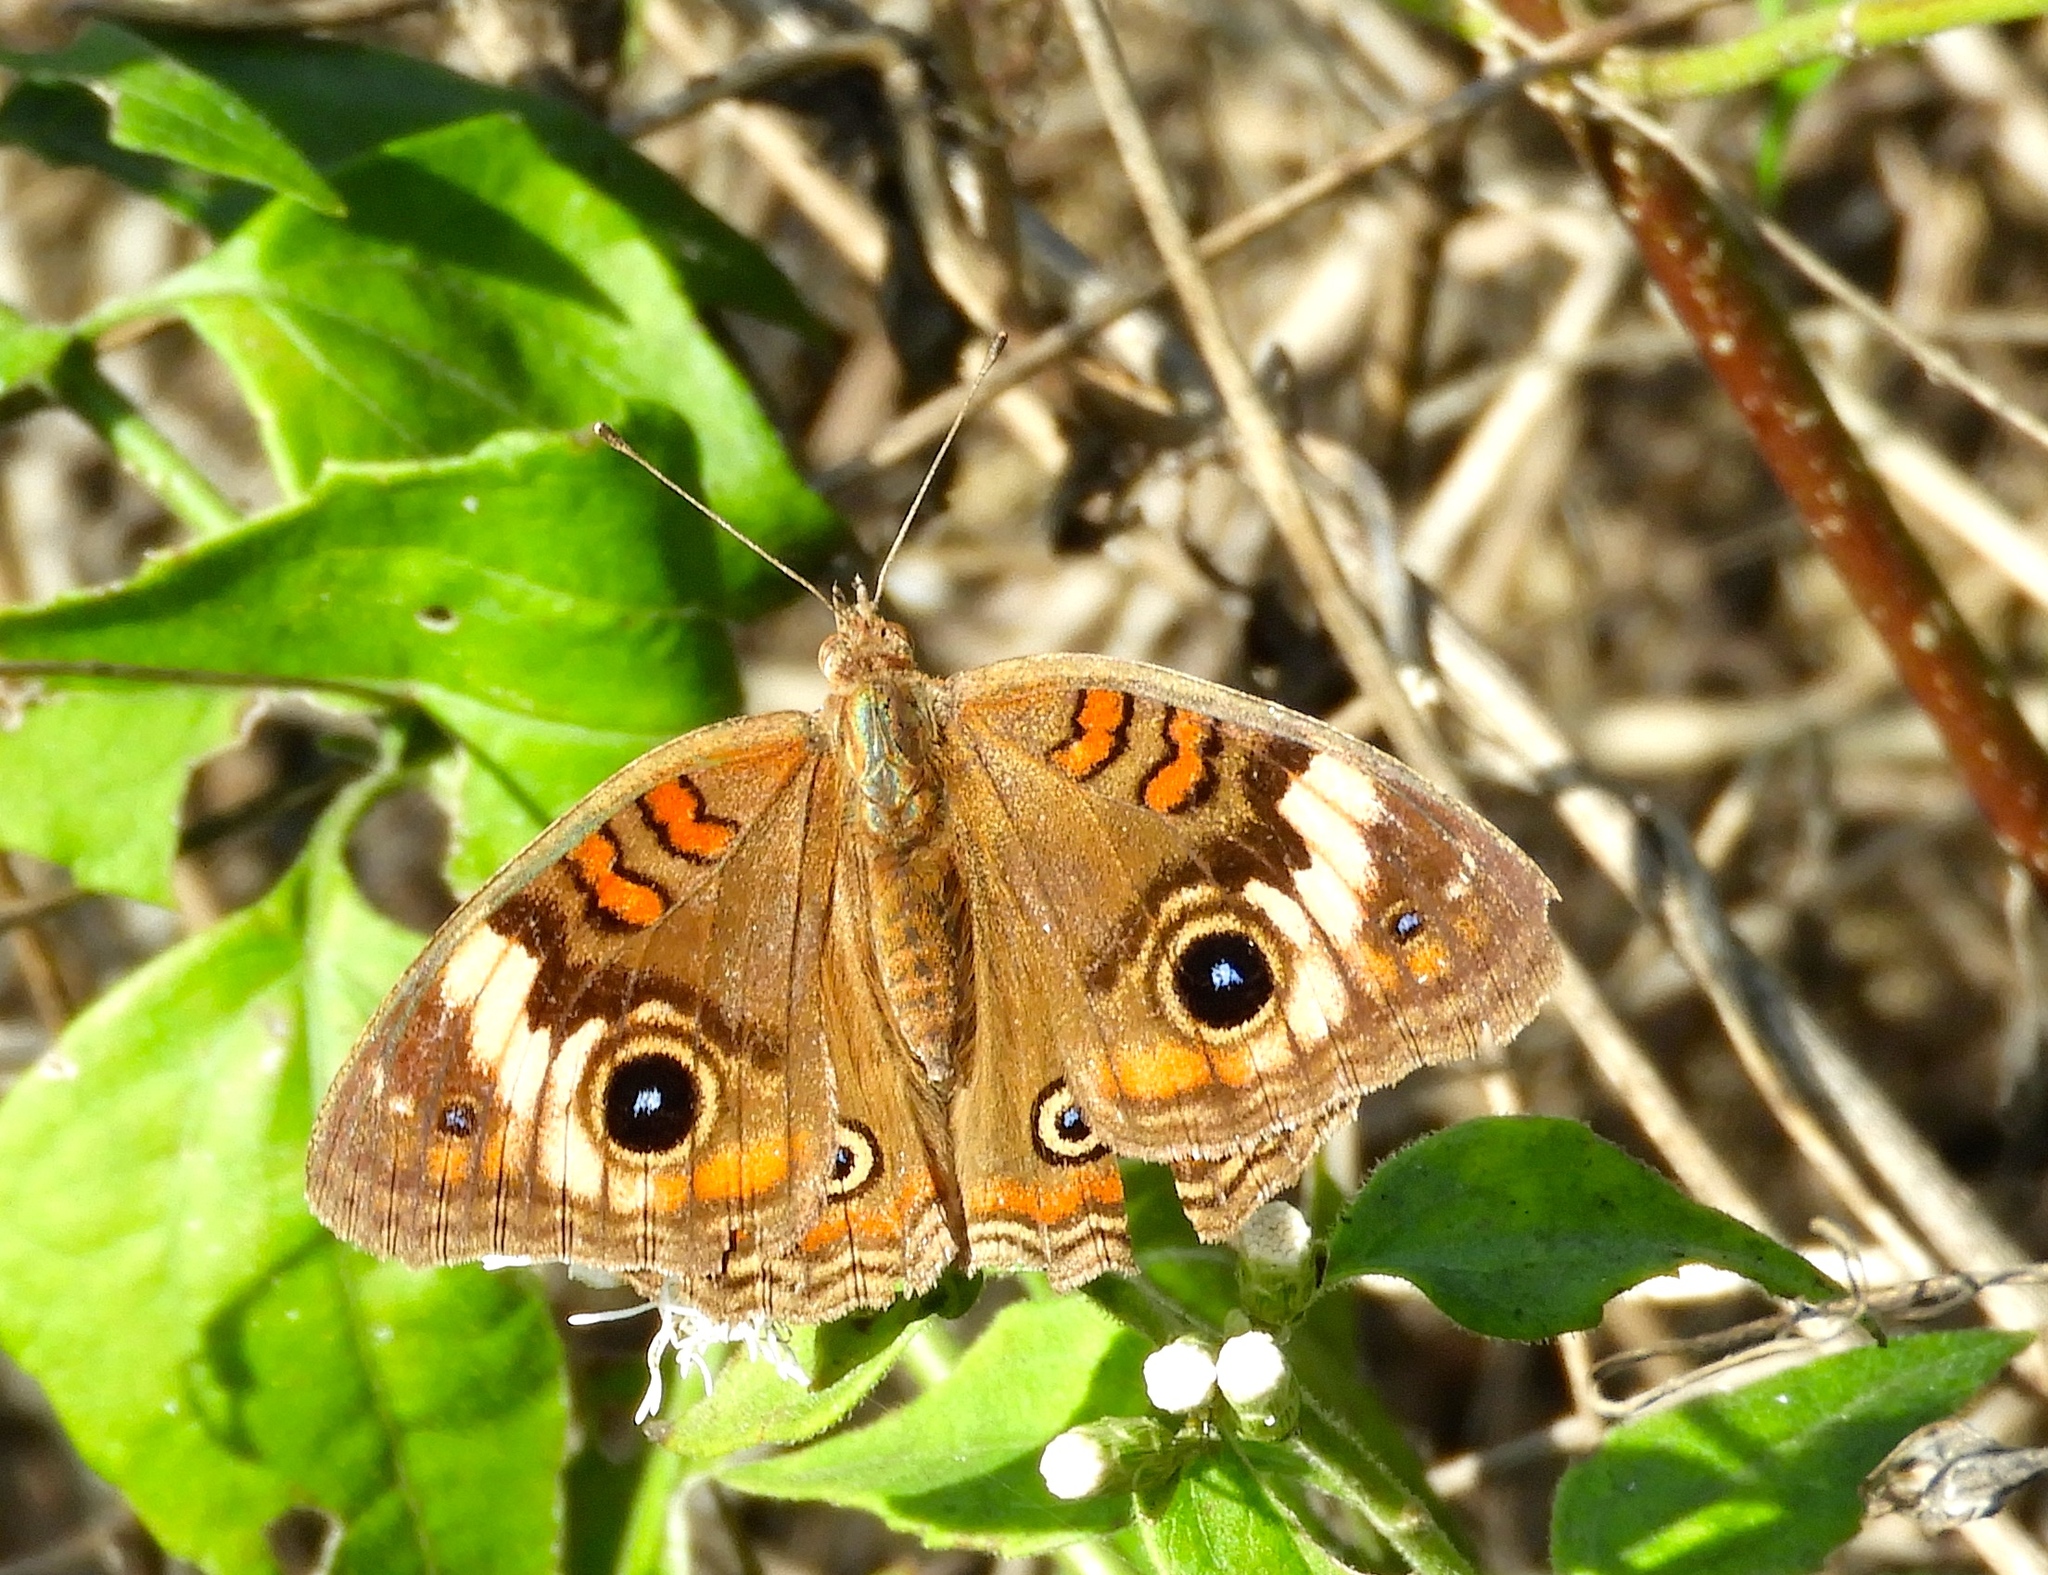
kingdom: Animalia
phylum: Arthropoda
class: Insecta
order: Lepidoptera
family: Nymphalidae
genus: Junonia
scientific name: Junonia
